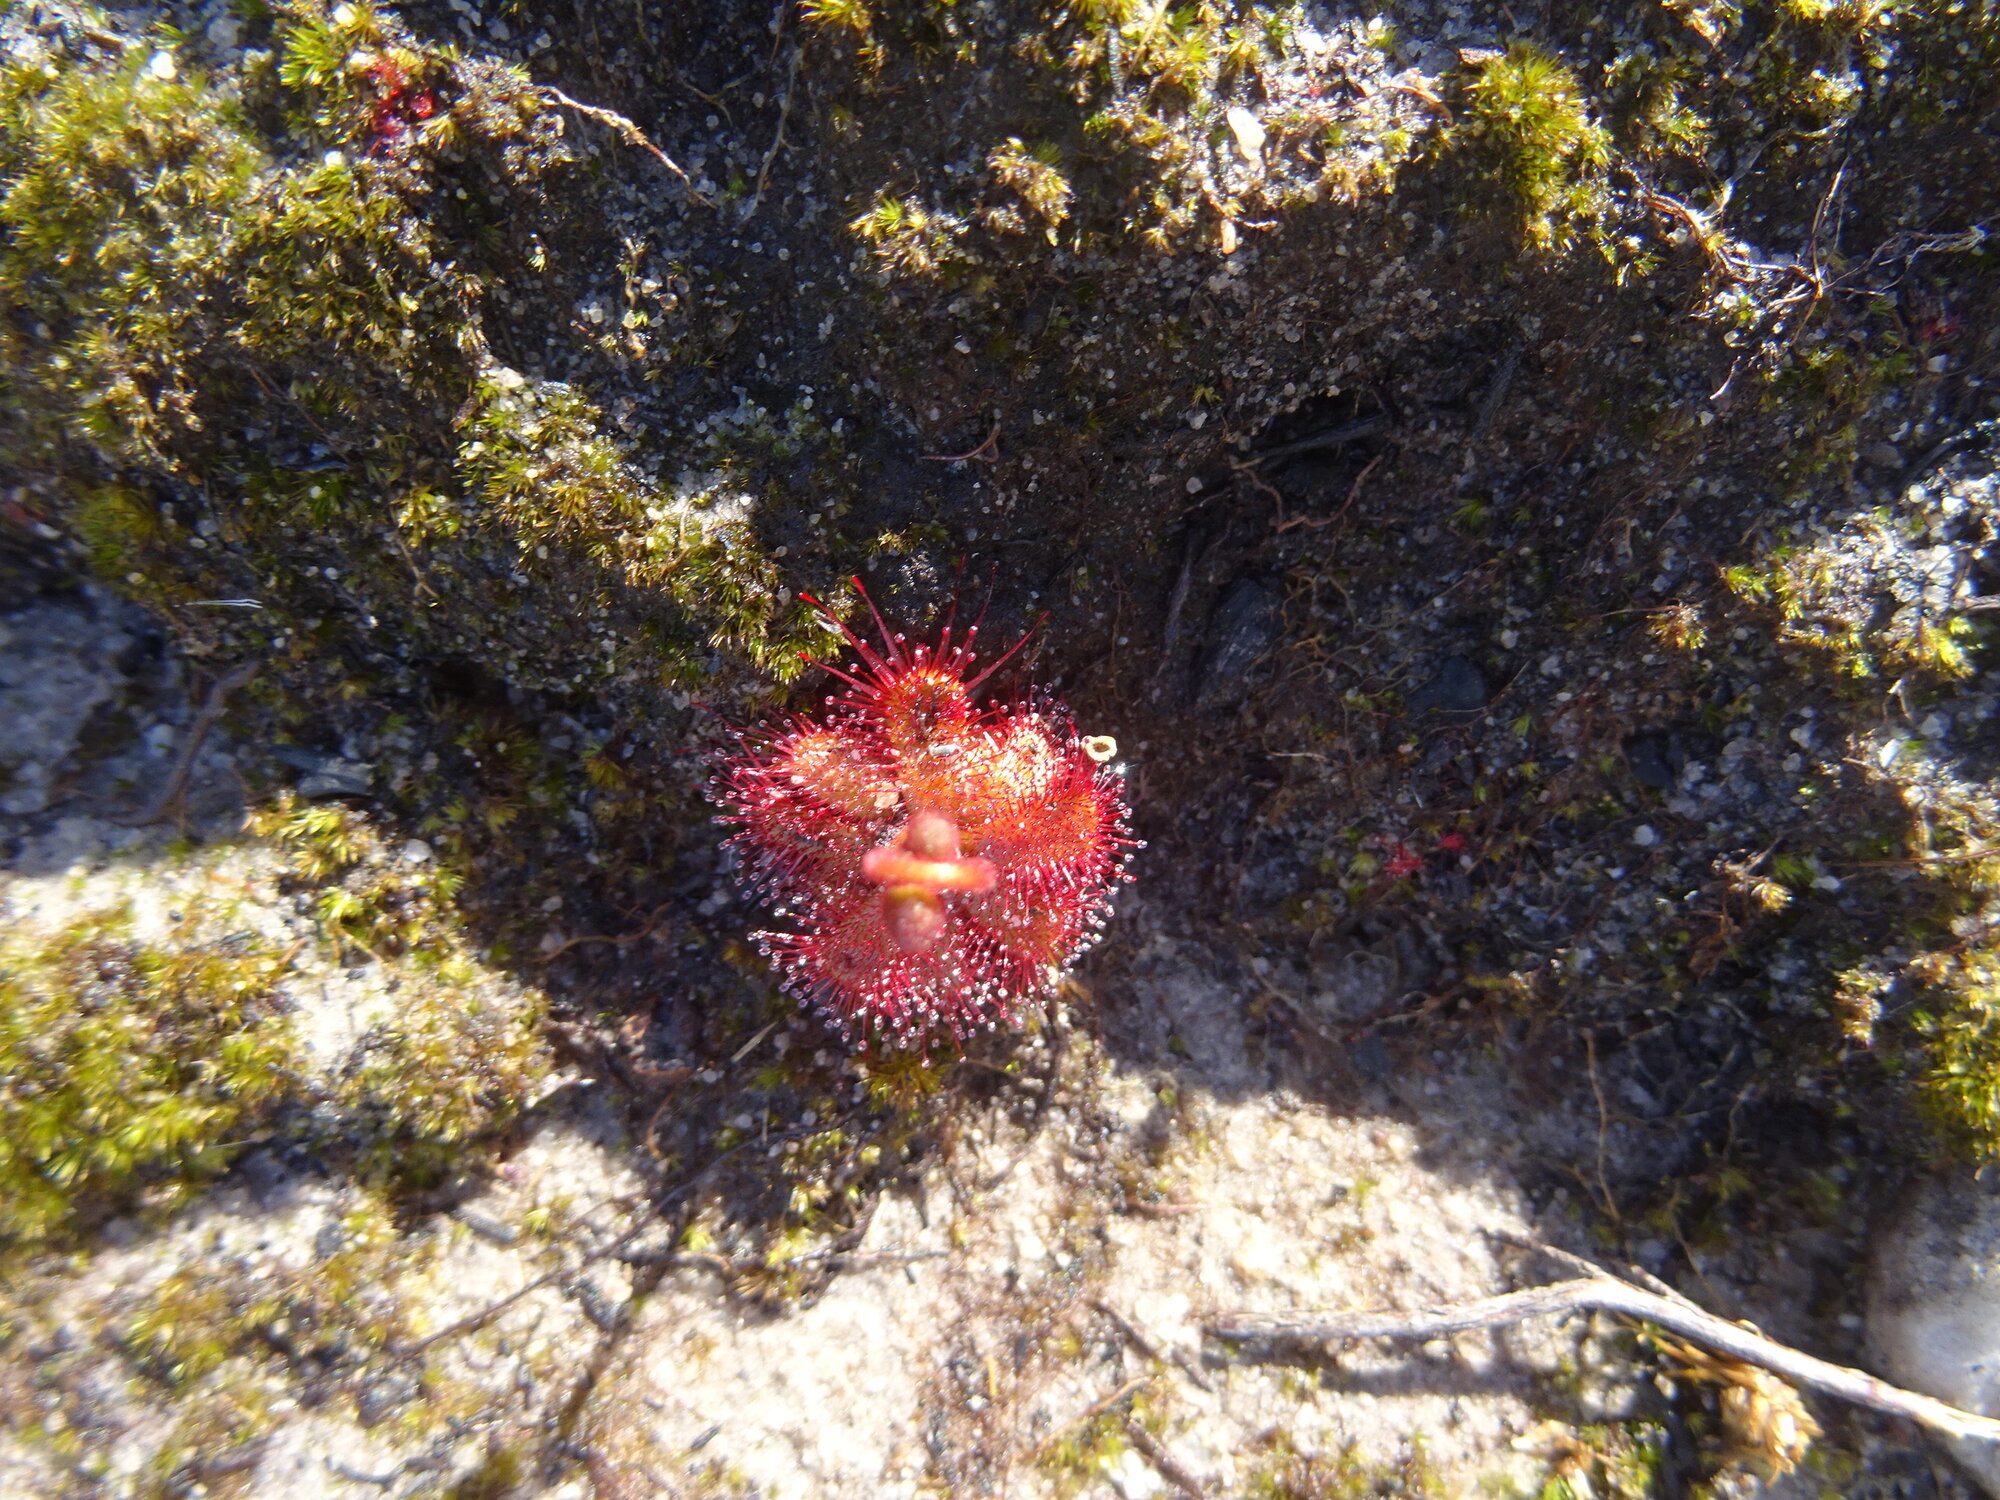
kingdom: Plantae
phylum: Tracheophyta
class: Magnoliopsida
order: Caryophyllales
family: Droseraceae
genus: Drosera
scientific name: Drosera trinervia
